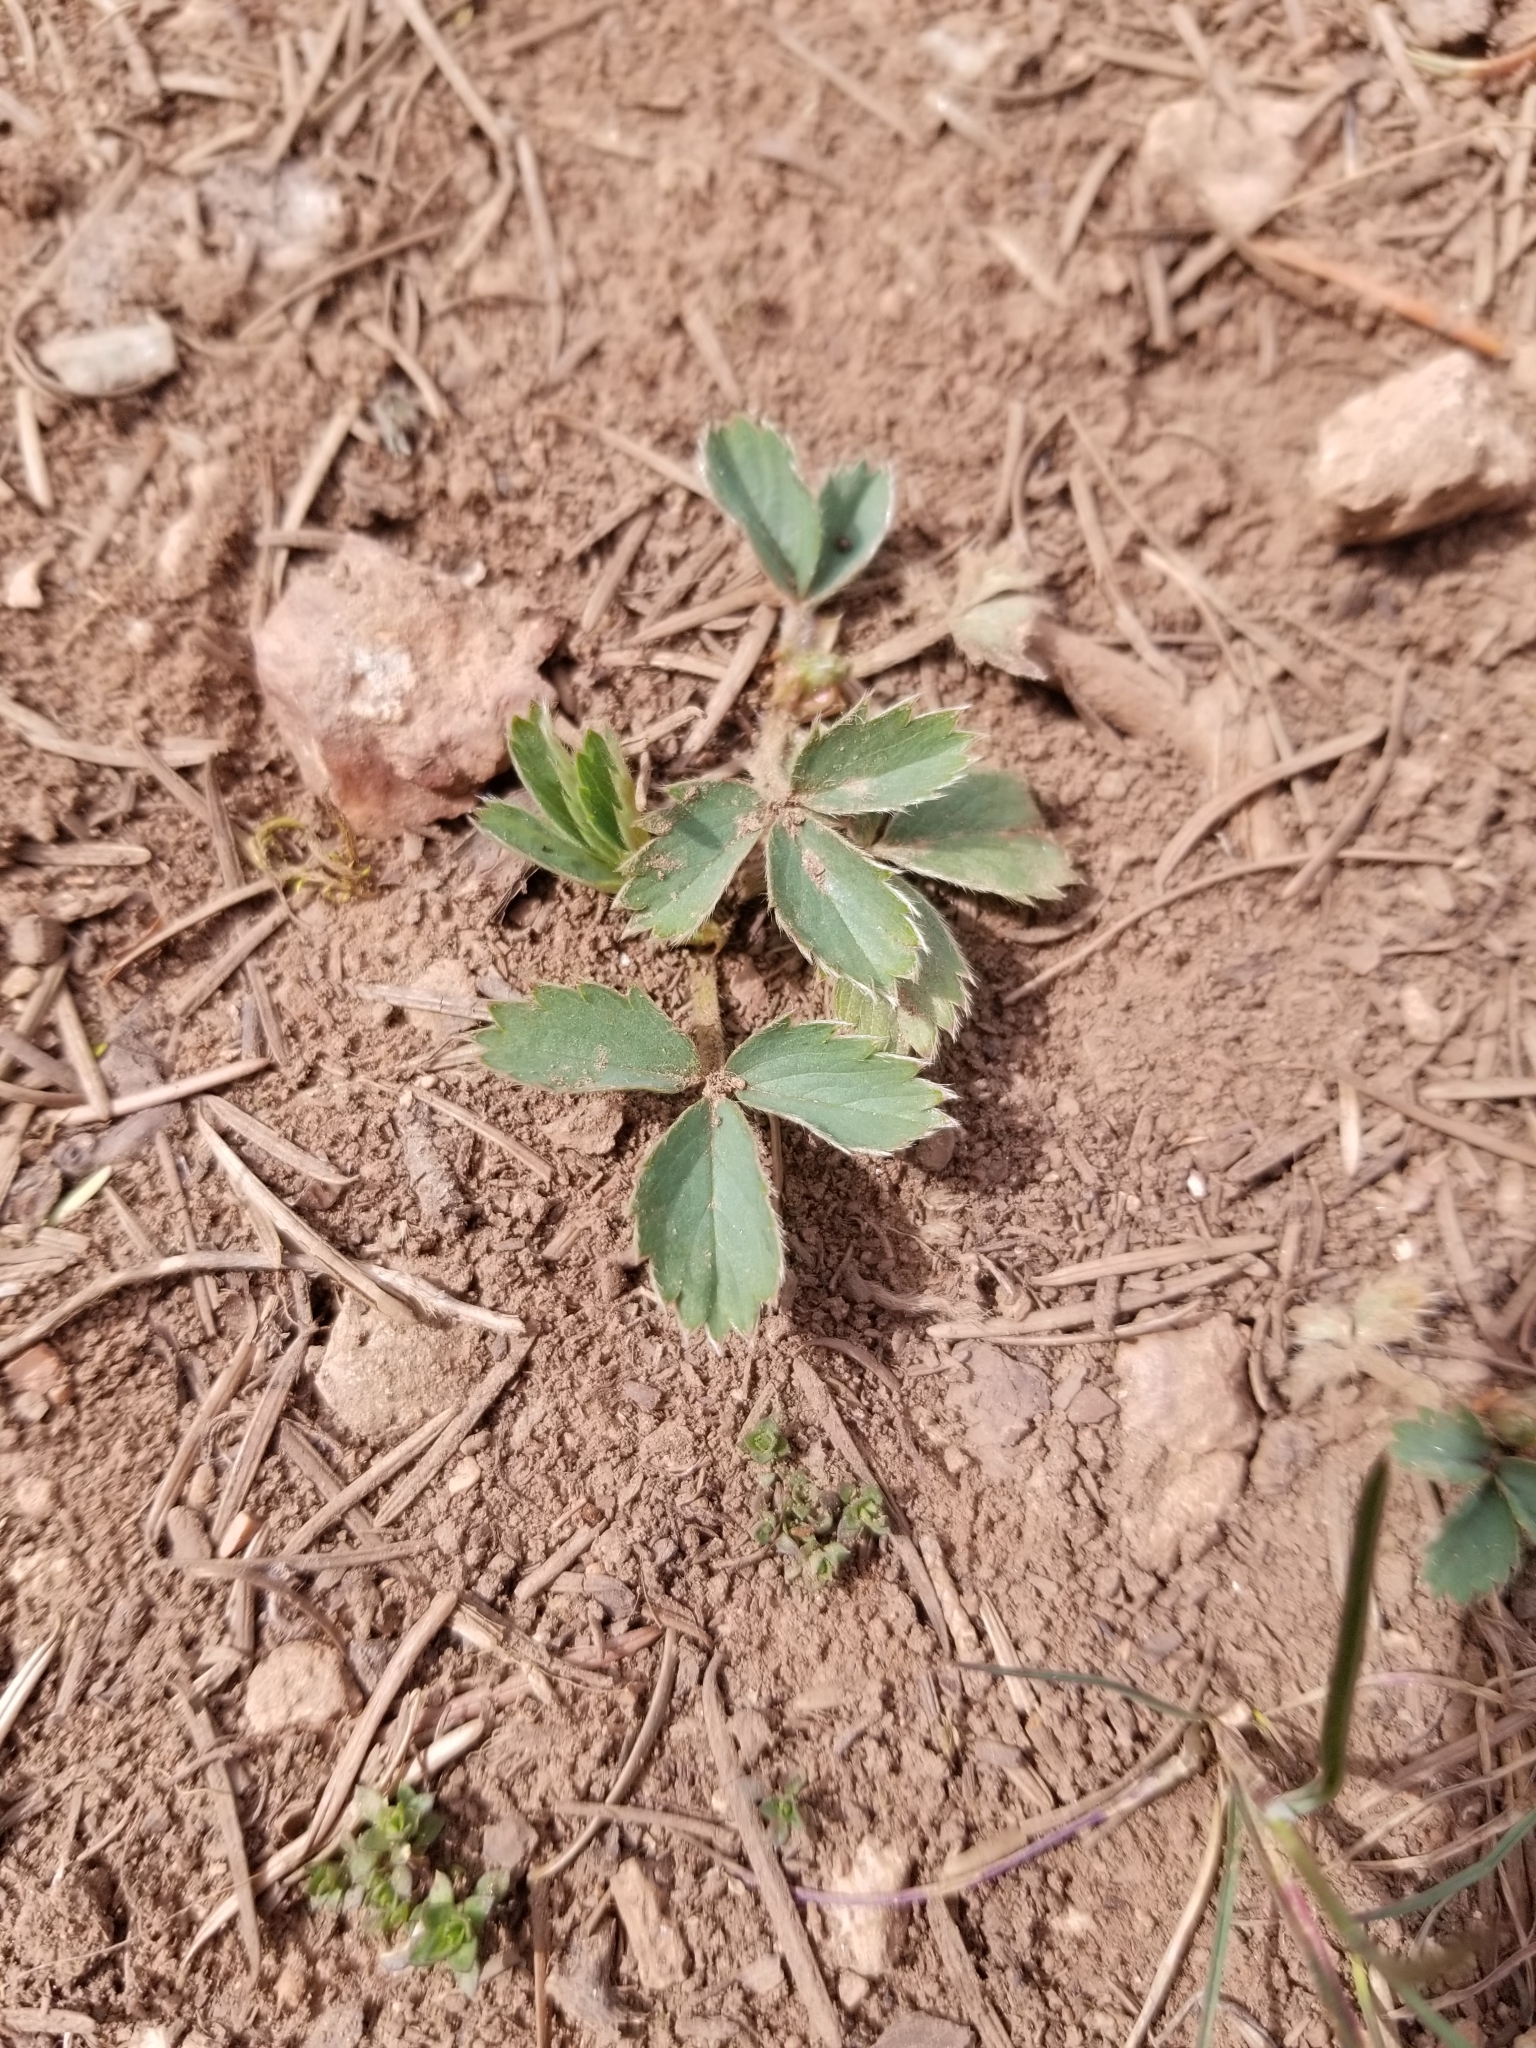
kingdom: Plantae
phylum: Tracheophyta
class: Magnoliopsida
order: Rosales
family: Rosaceae
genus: Fragaria
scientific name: Fragaria virginiana
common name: Thickleaved wild strawberry
